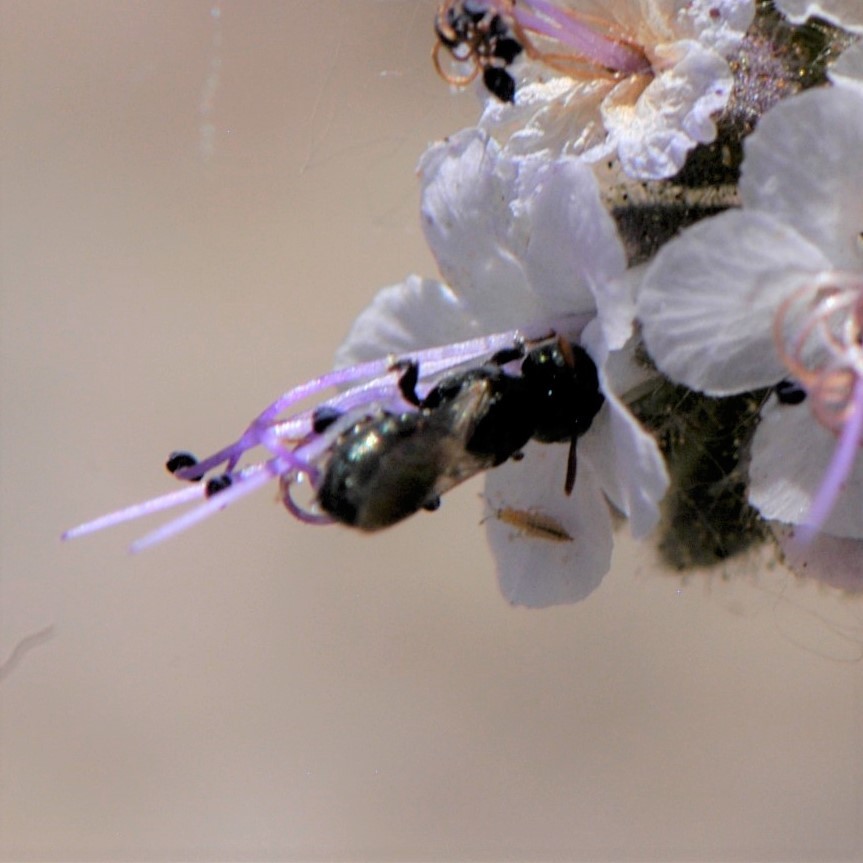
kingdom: Animalia
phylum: Arthropoda
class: Insecta
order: Hymenoptera
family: Apidae
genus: Zadontomerus
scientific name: Zadontomerus
